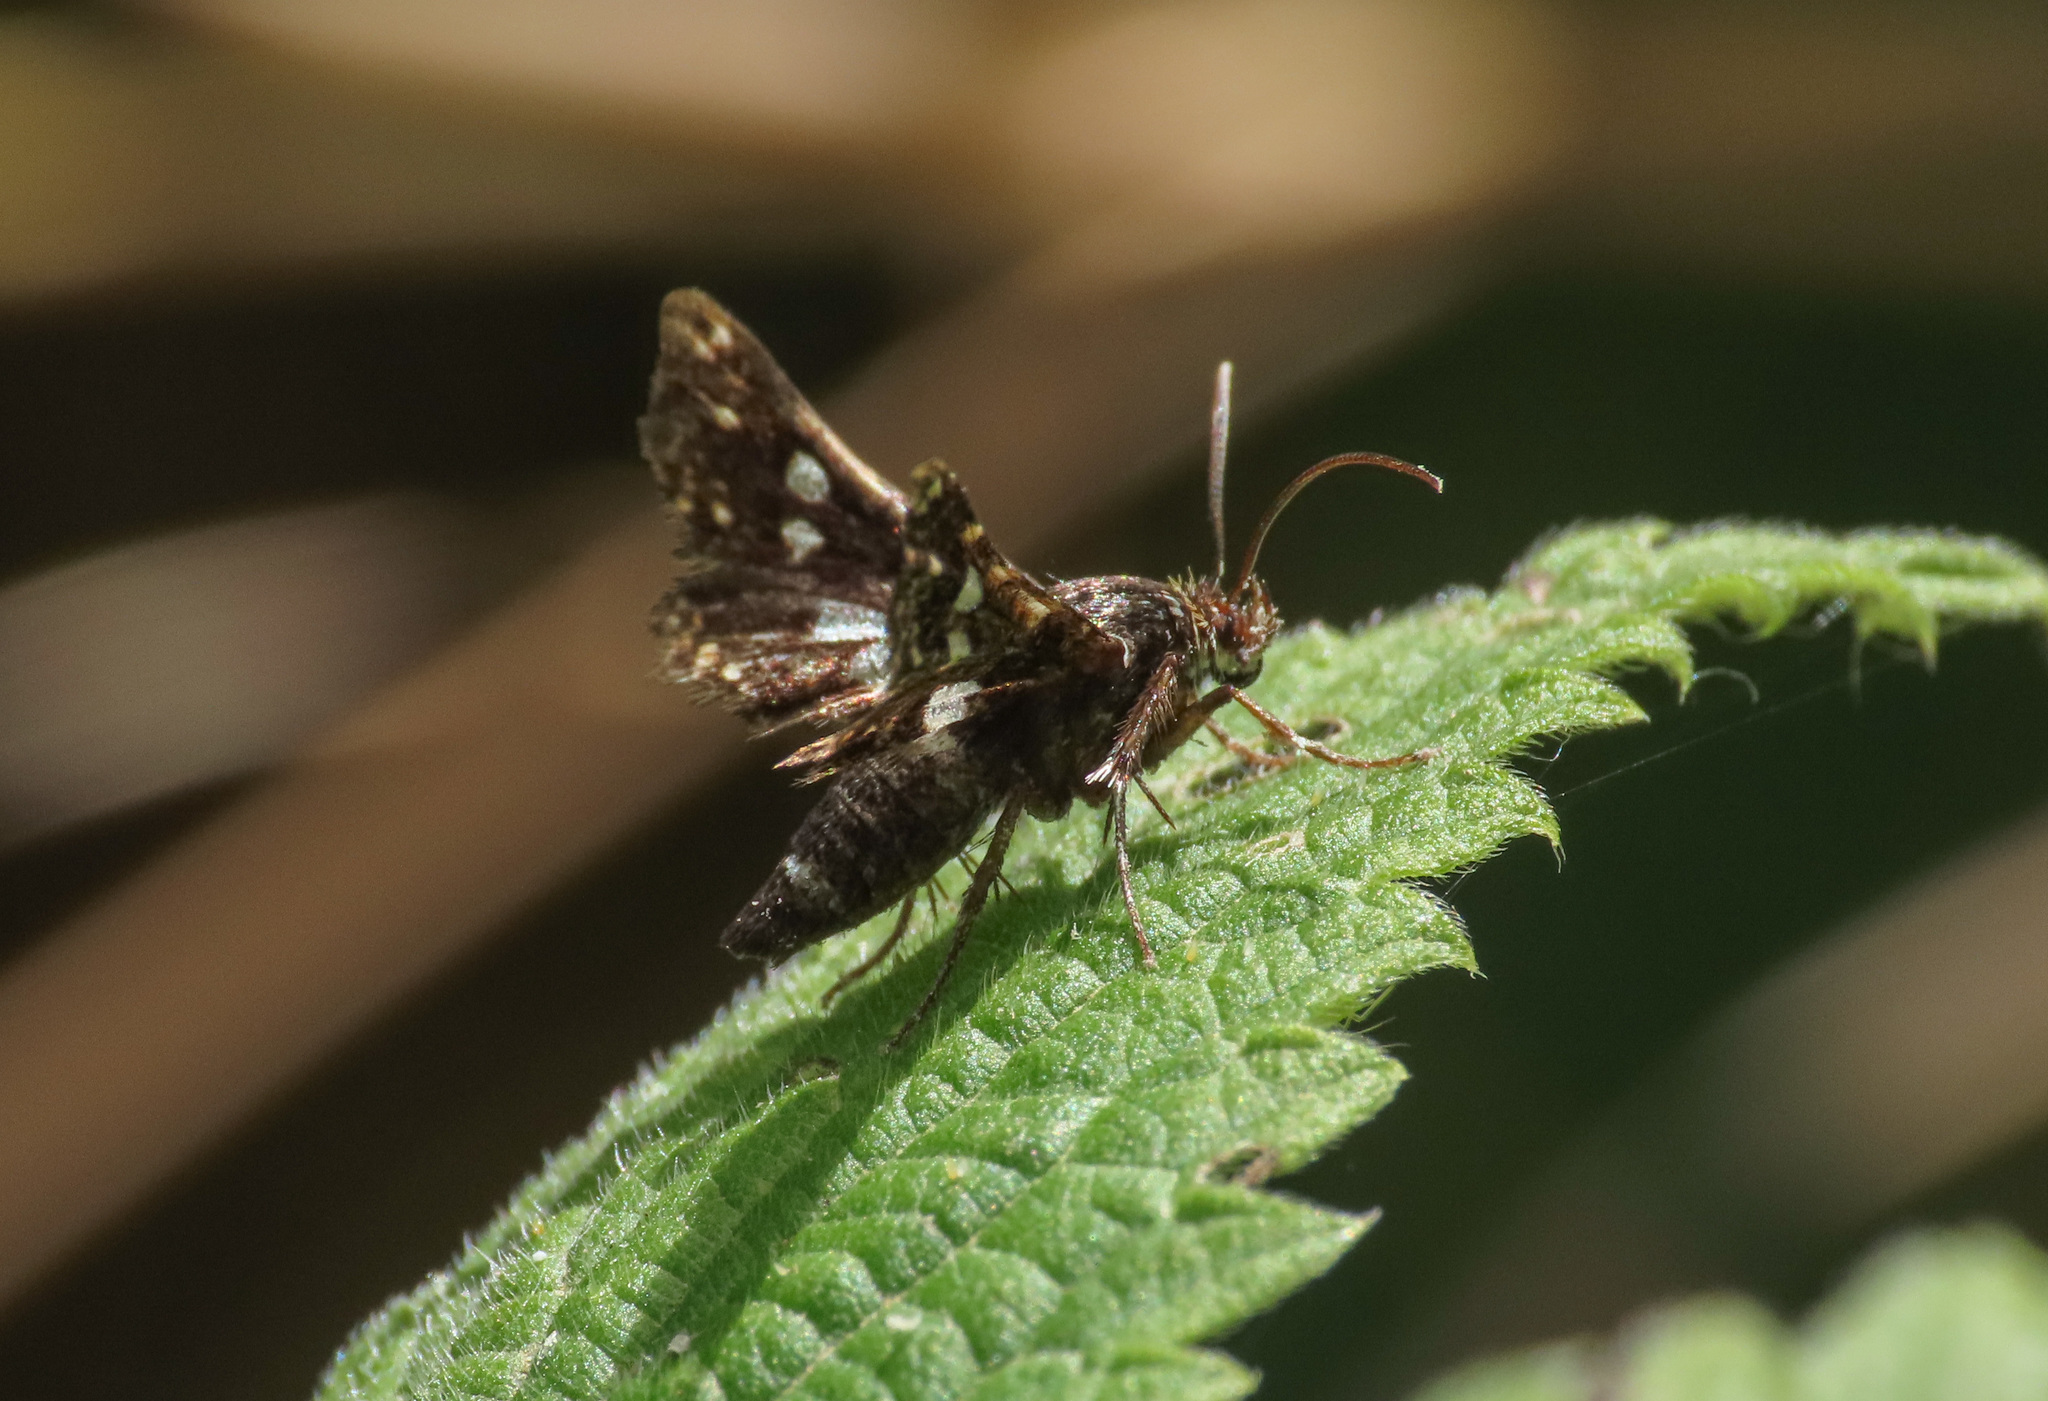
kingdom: Animalia
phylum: Arthropoda
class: Insecta
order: Lepidoptera
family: Thyrididae
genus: Thyris
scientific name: Thyris fenestrella
